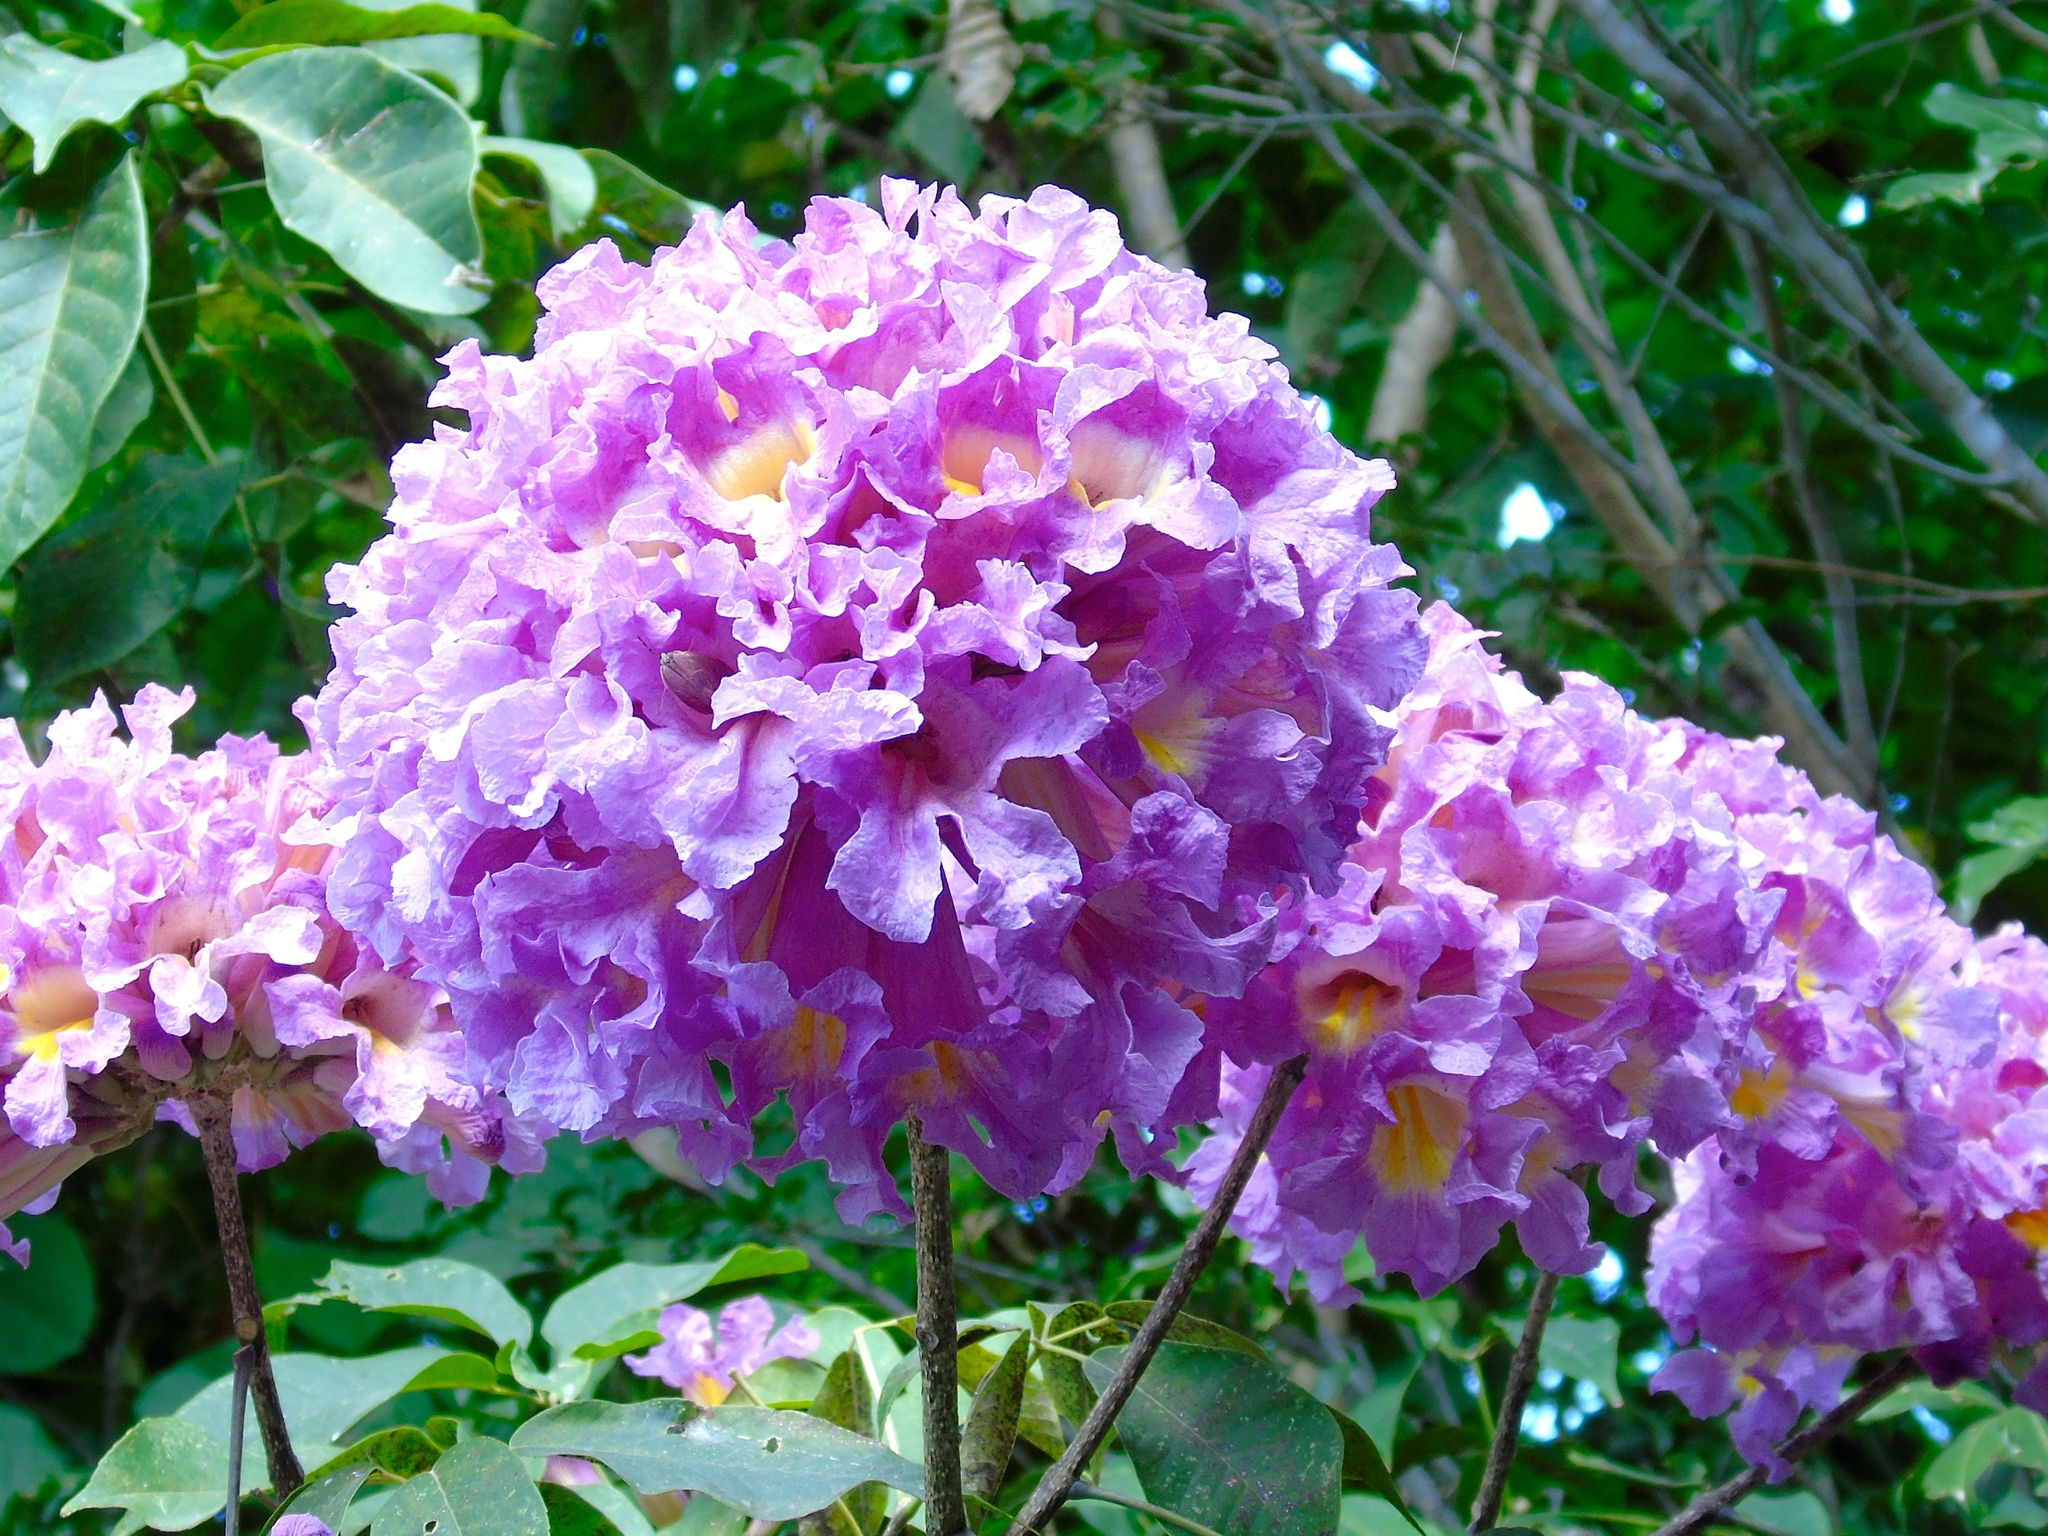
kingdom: Plantae
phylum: Tracheophyta
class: Magnoliopsida
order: Lamiales
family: Bignoniaceae
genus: Handroanthus
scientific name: Handroanthus impetiginosum
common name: Pink trumpet tree
